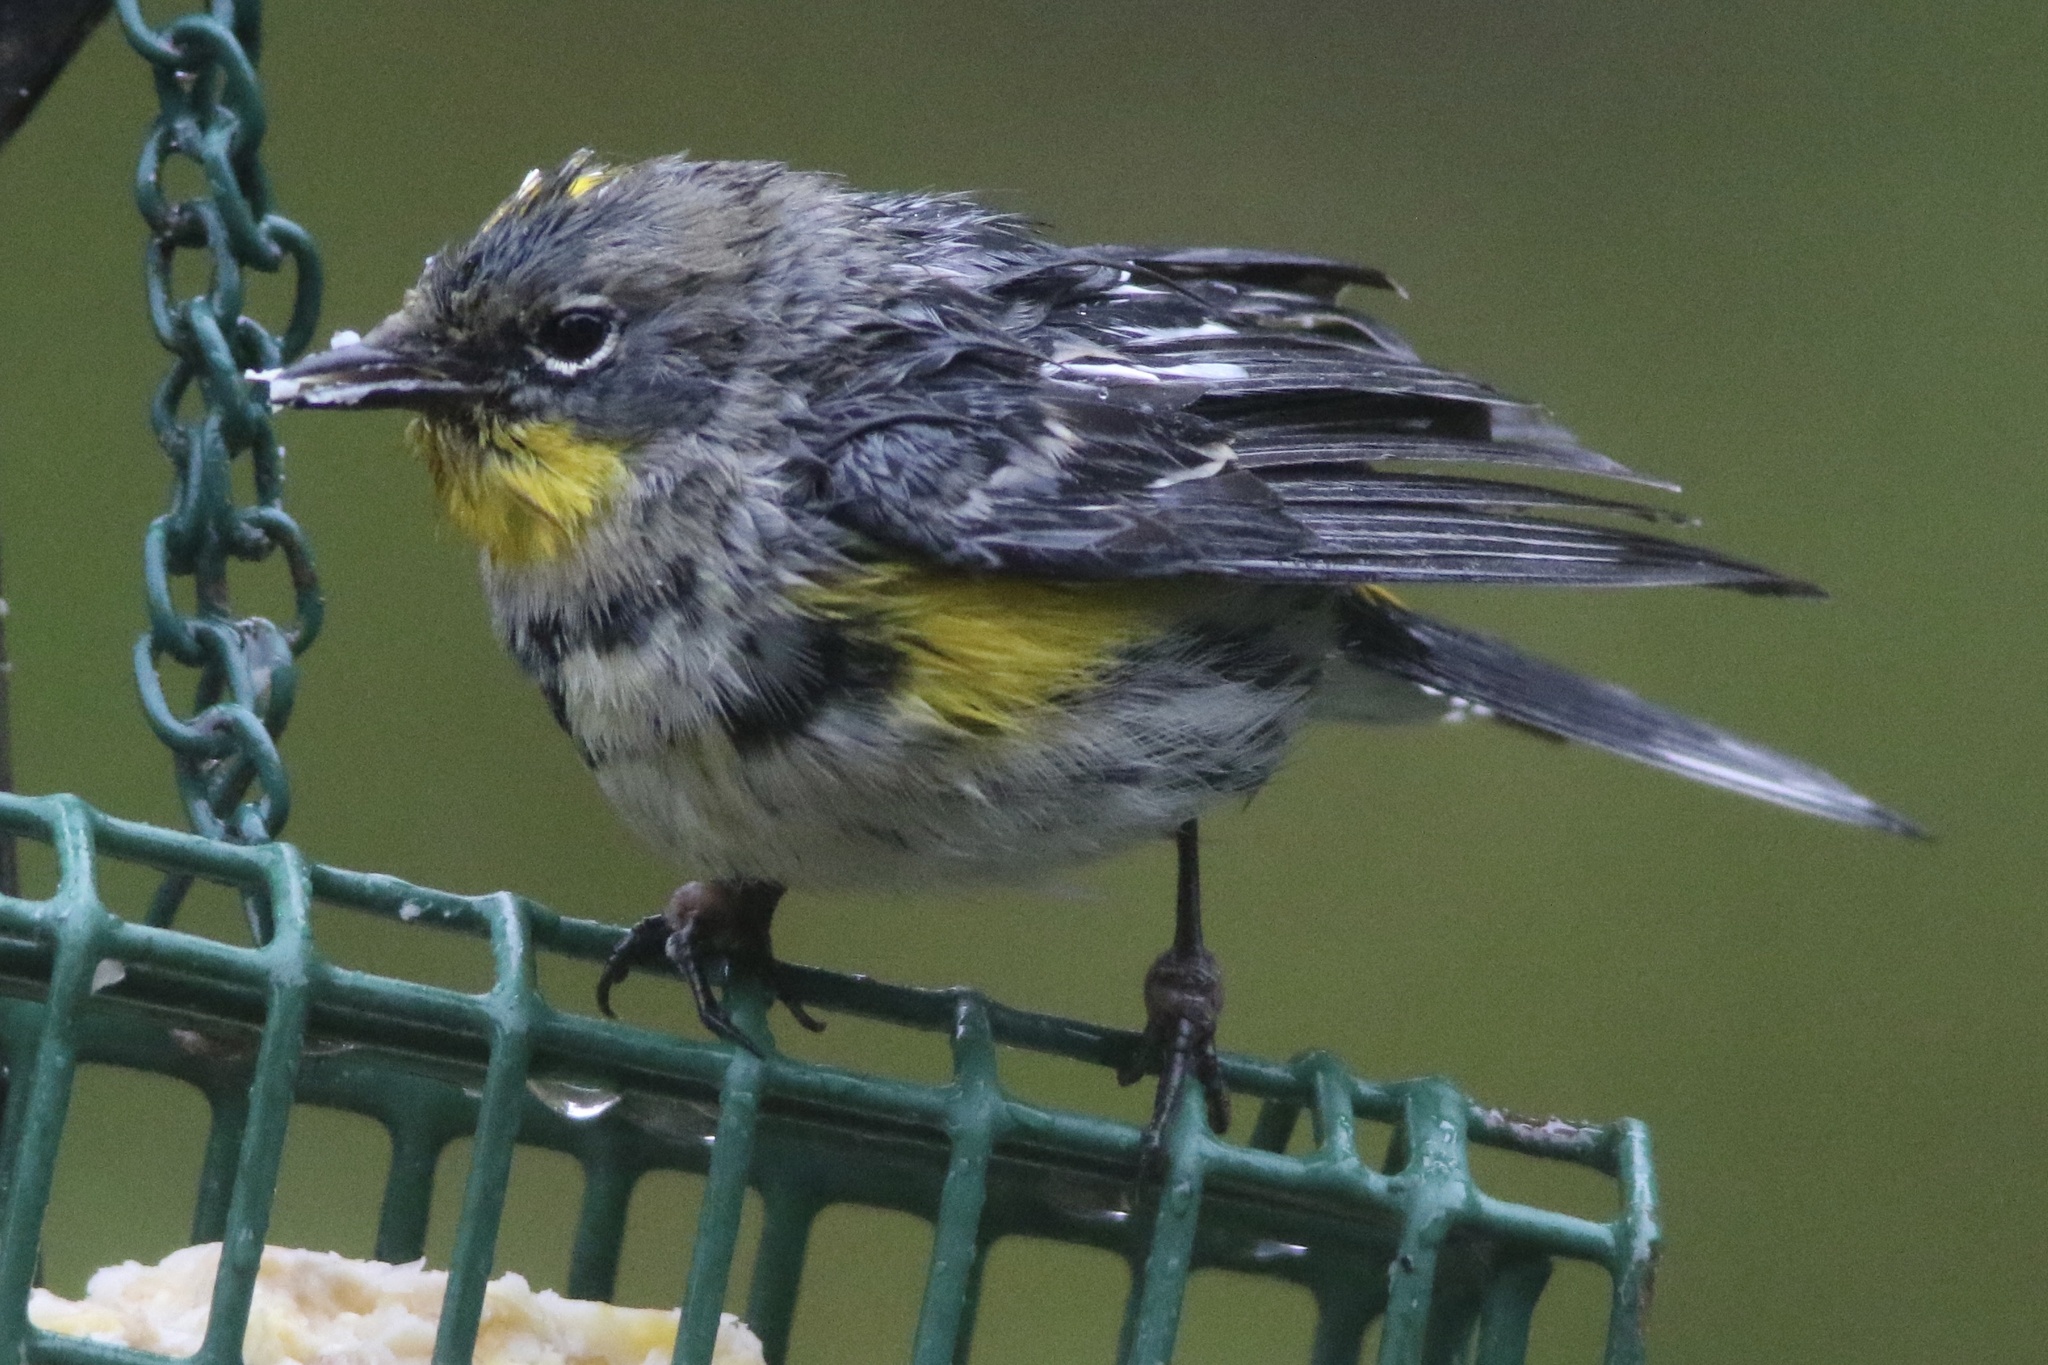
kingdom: Animalia
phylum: Chordata
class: Aves
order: Passeriformes
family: Parulidae
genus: Setophaga
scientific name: Setophaga coronata
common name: Myrtle warbler
